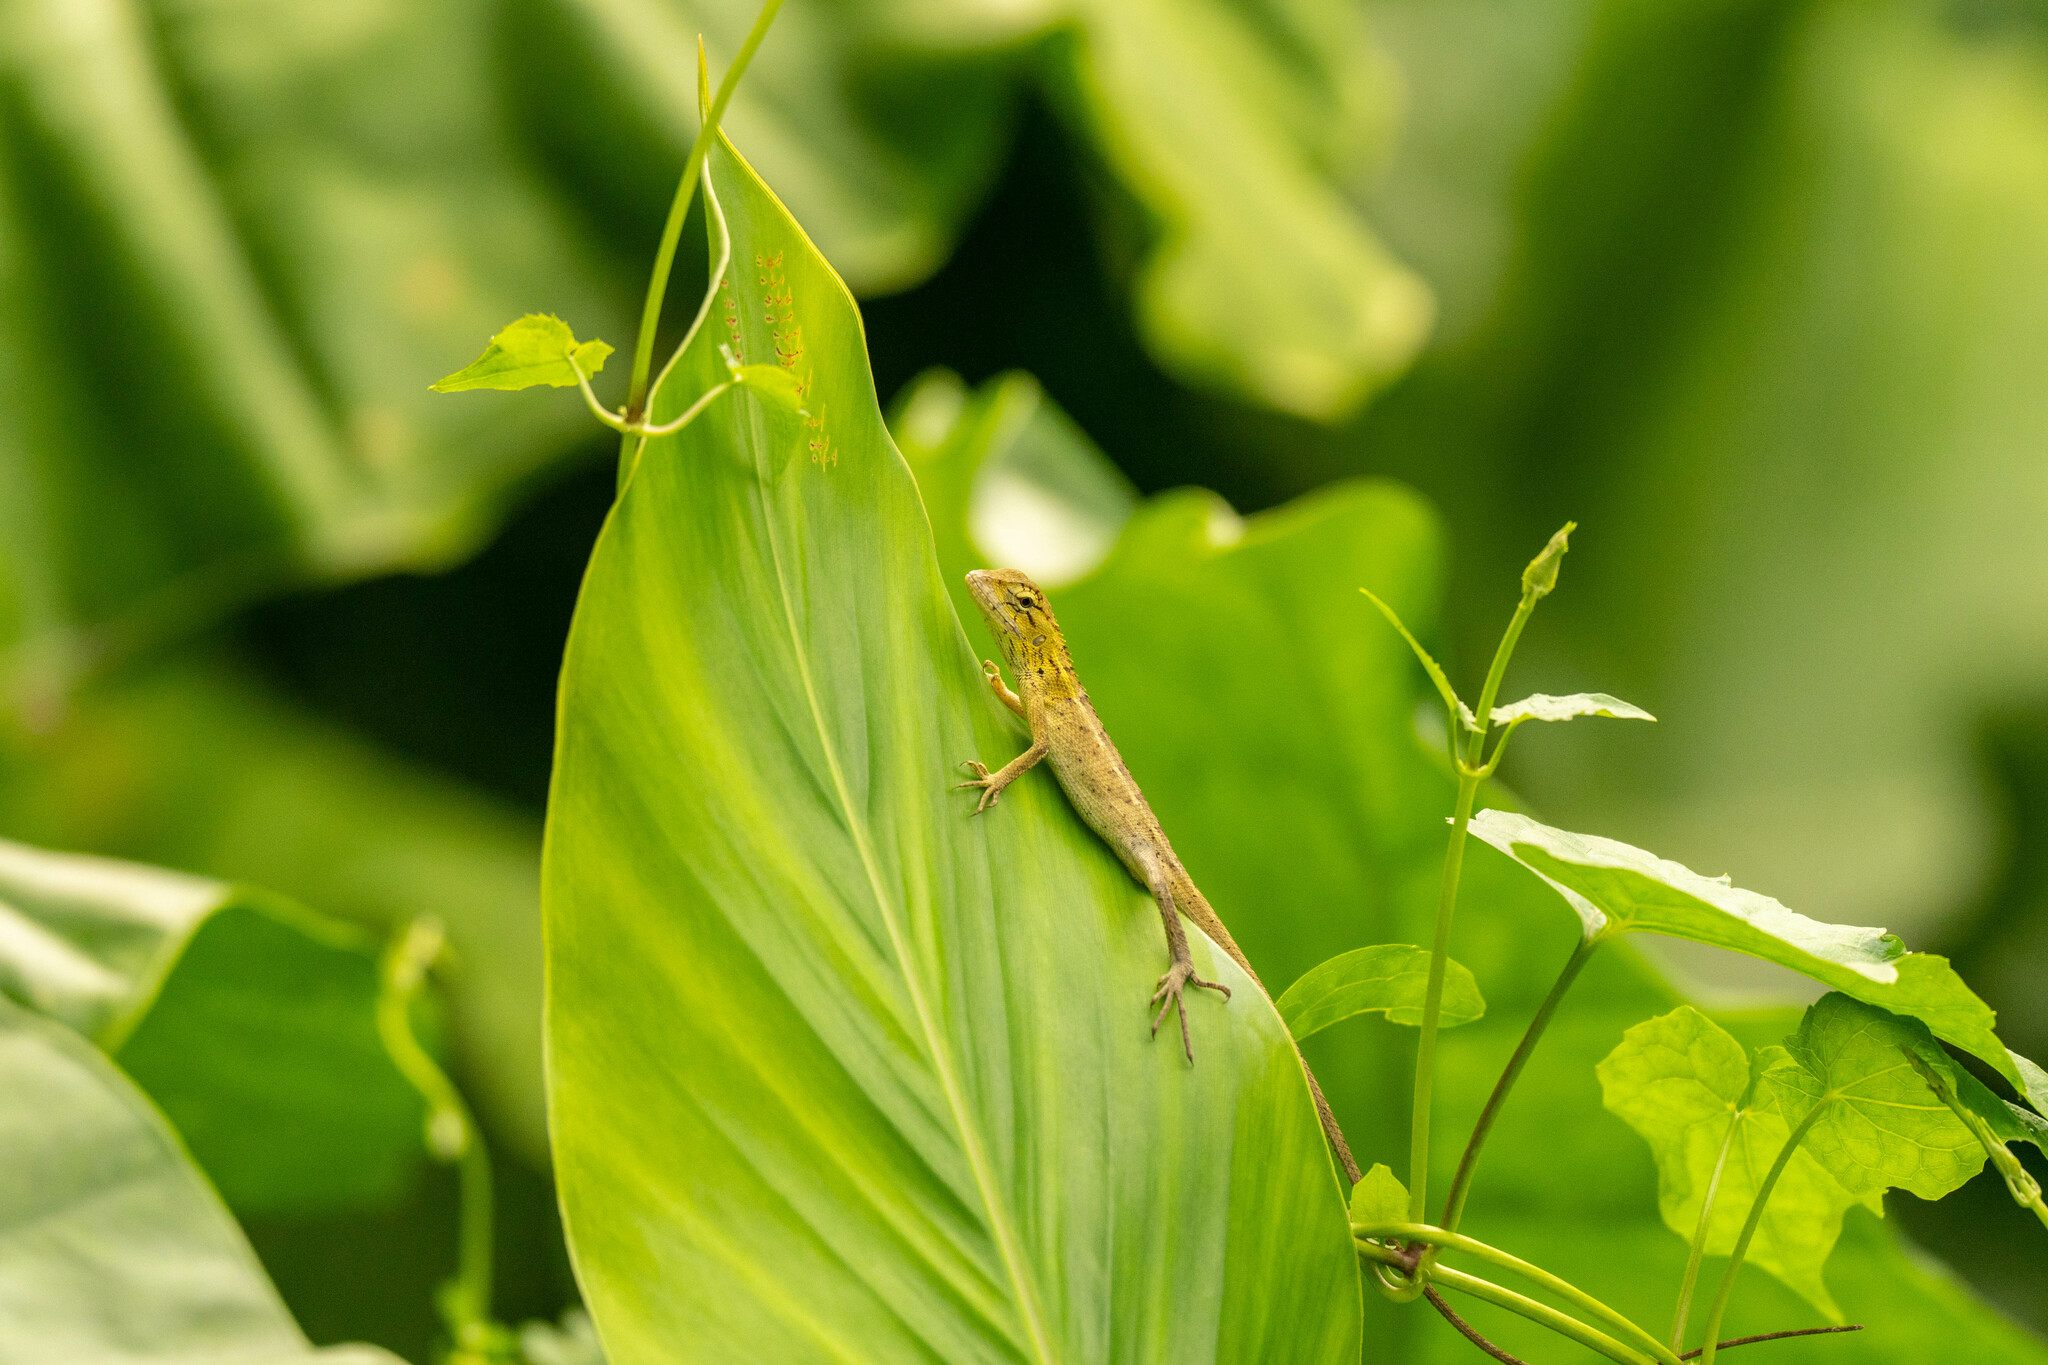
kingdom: Animalia
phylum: Chordata
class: Squamata
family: Agamidae
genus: Calotes
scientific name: Calotes versicolor
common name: Oriental garden lizard
